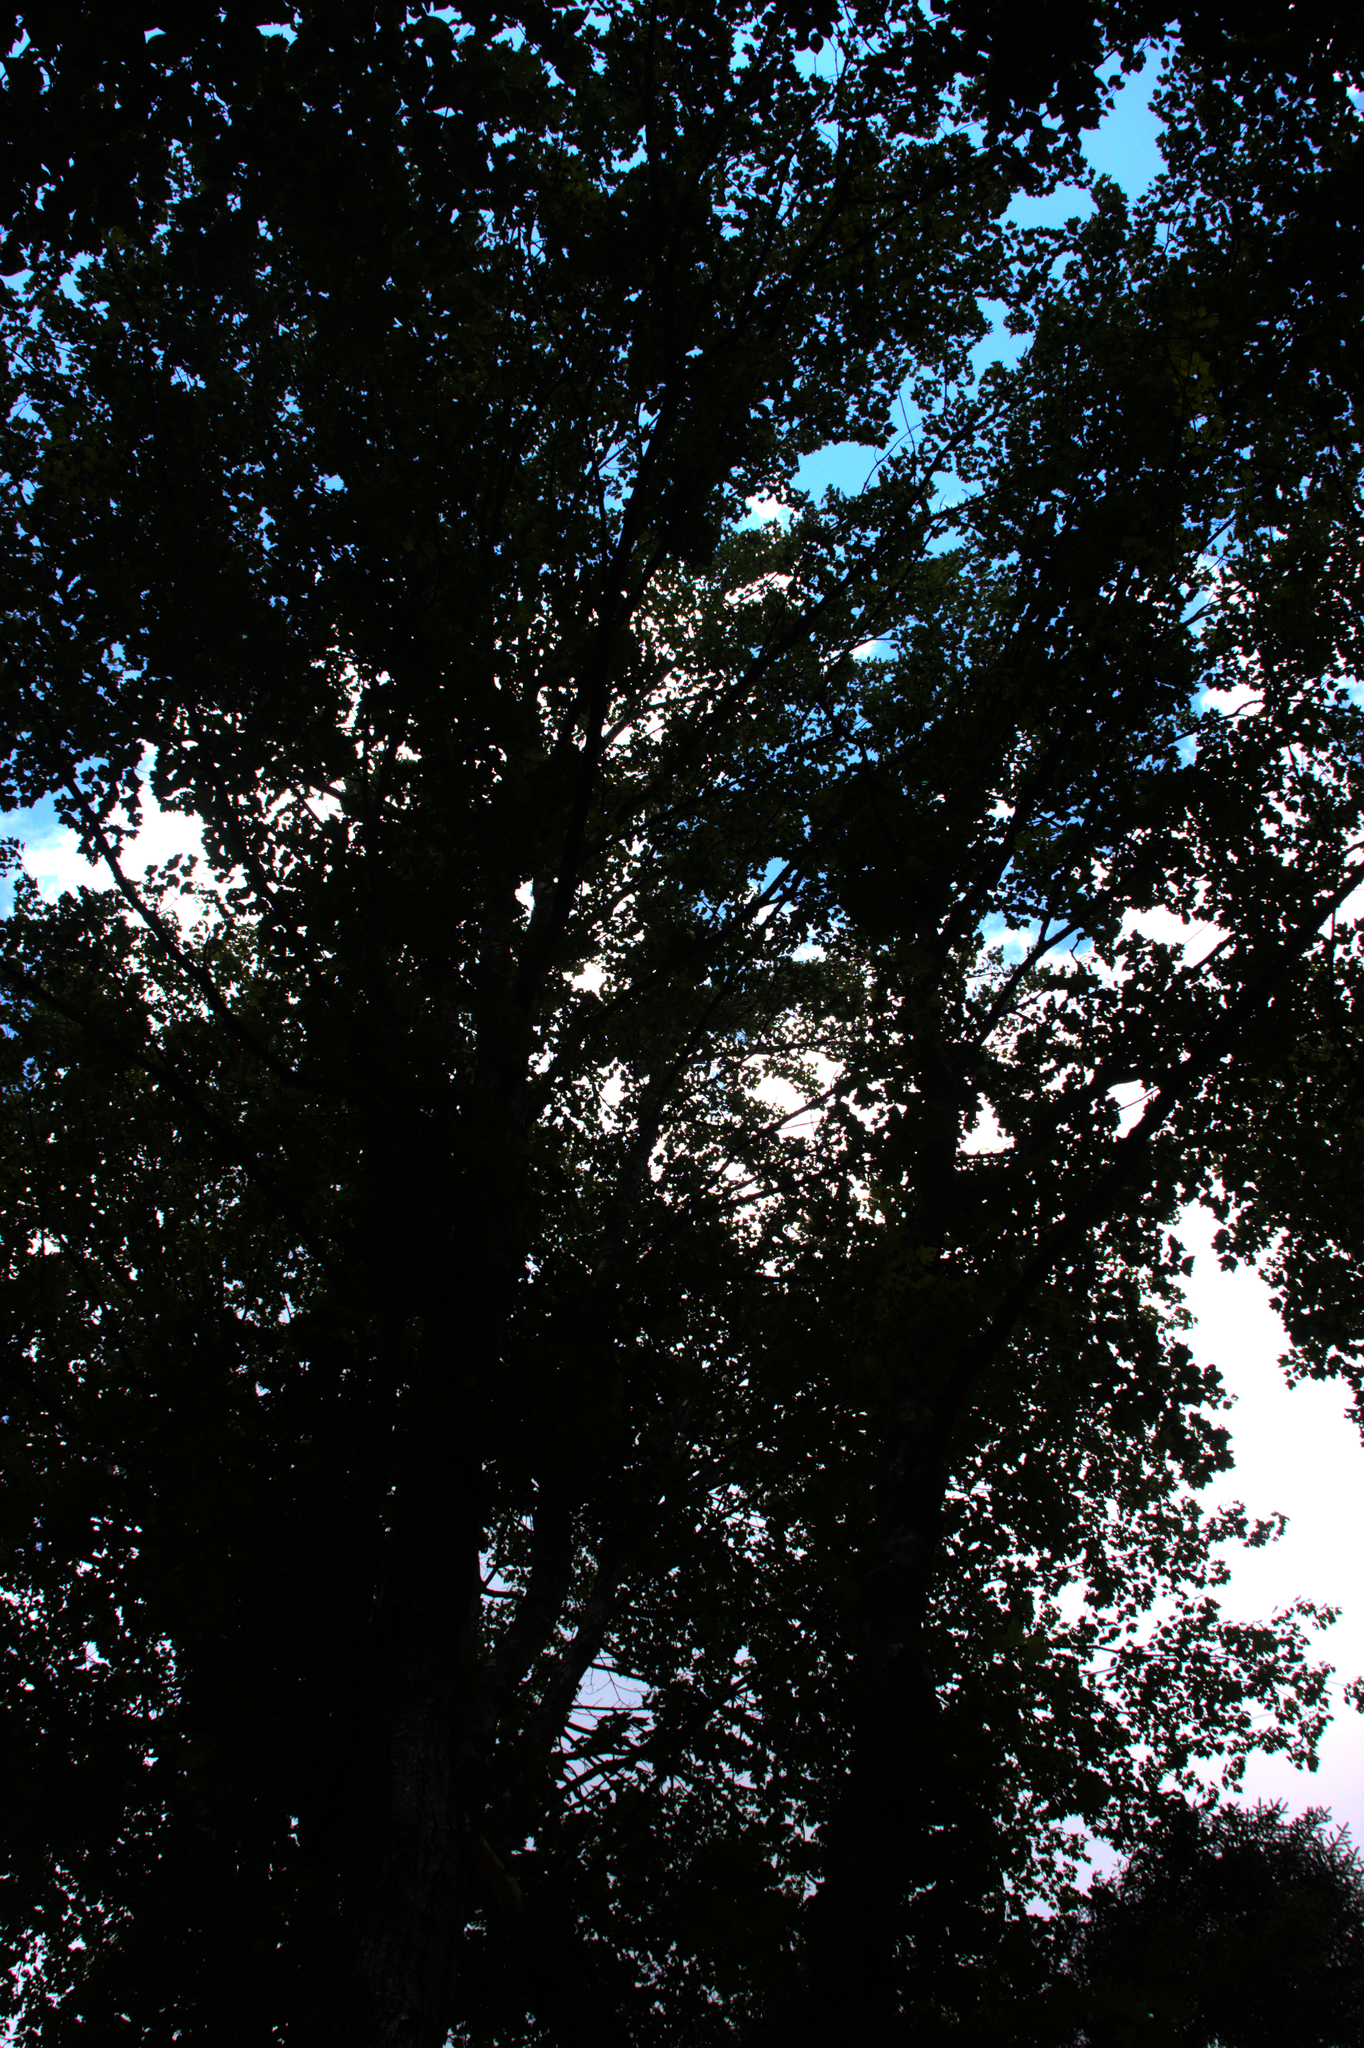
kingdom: Plantae
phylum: Tracheophyta
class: Magnoliopsida
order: Sapindales
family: Sapindaceae
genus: Acer
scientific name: Acer rubrum
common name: Red maple
